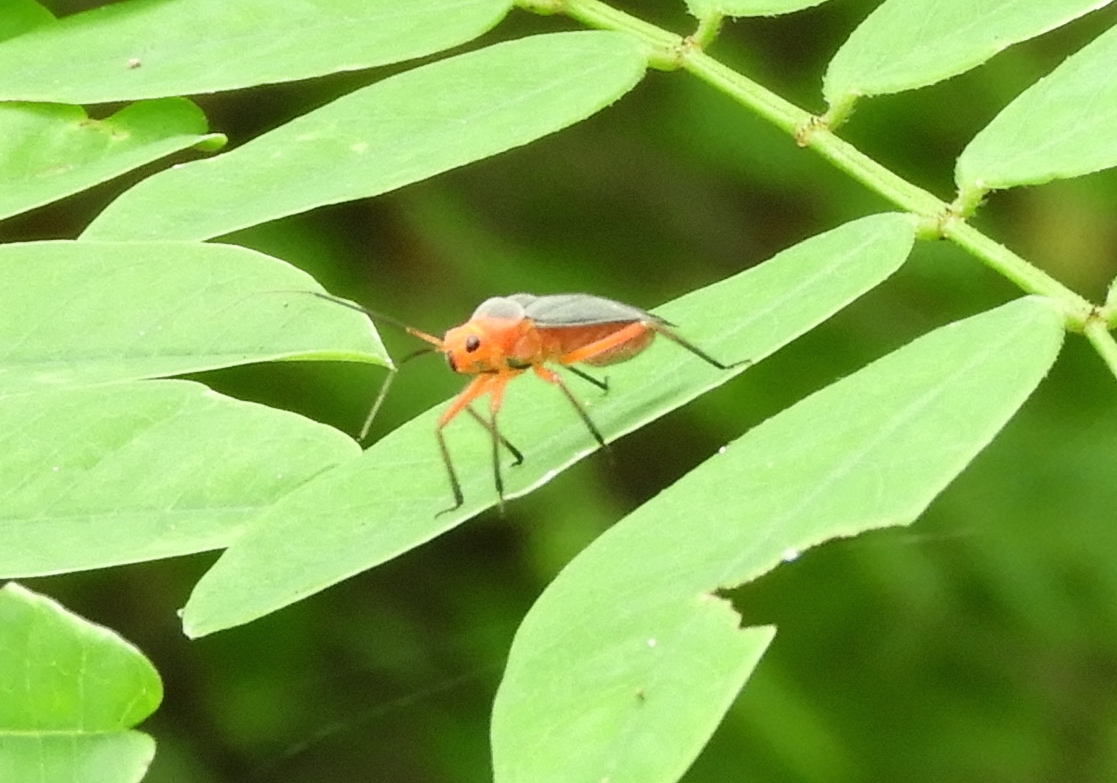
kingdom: Animalia
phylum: Arthropoda
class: Insecta
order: Hemiptera
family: Miridae
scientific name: Miridae
